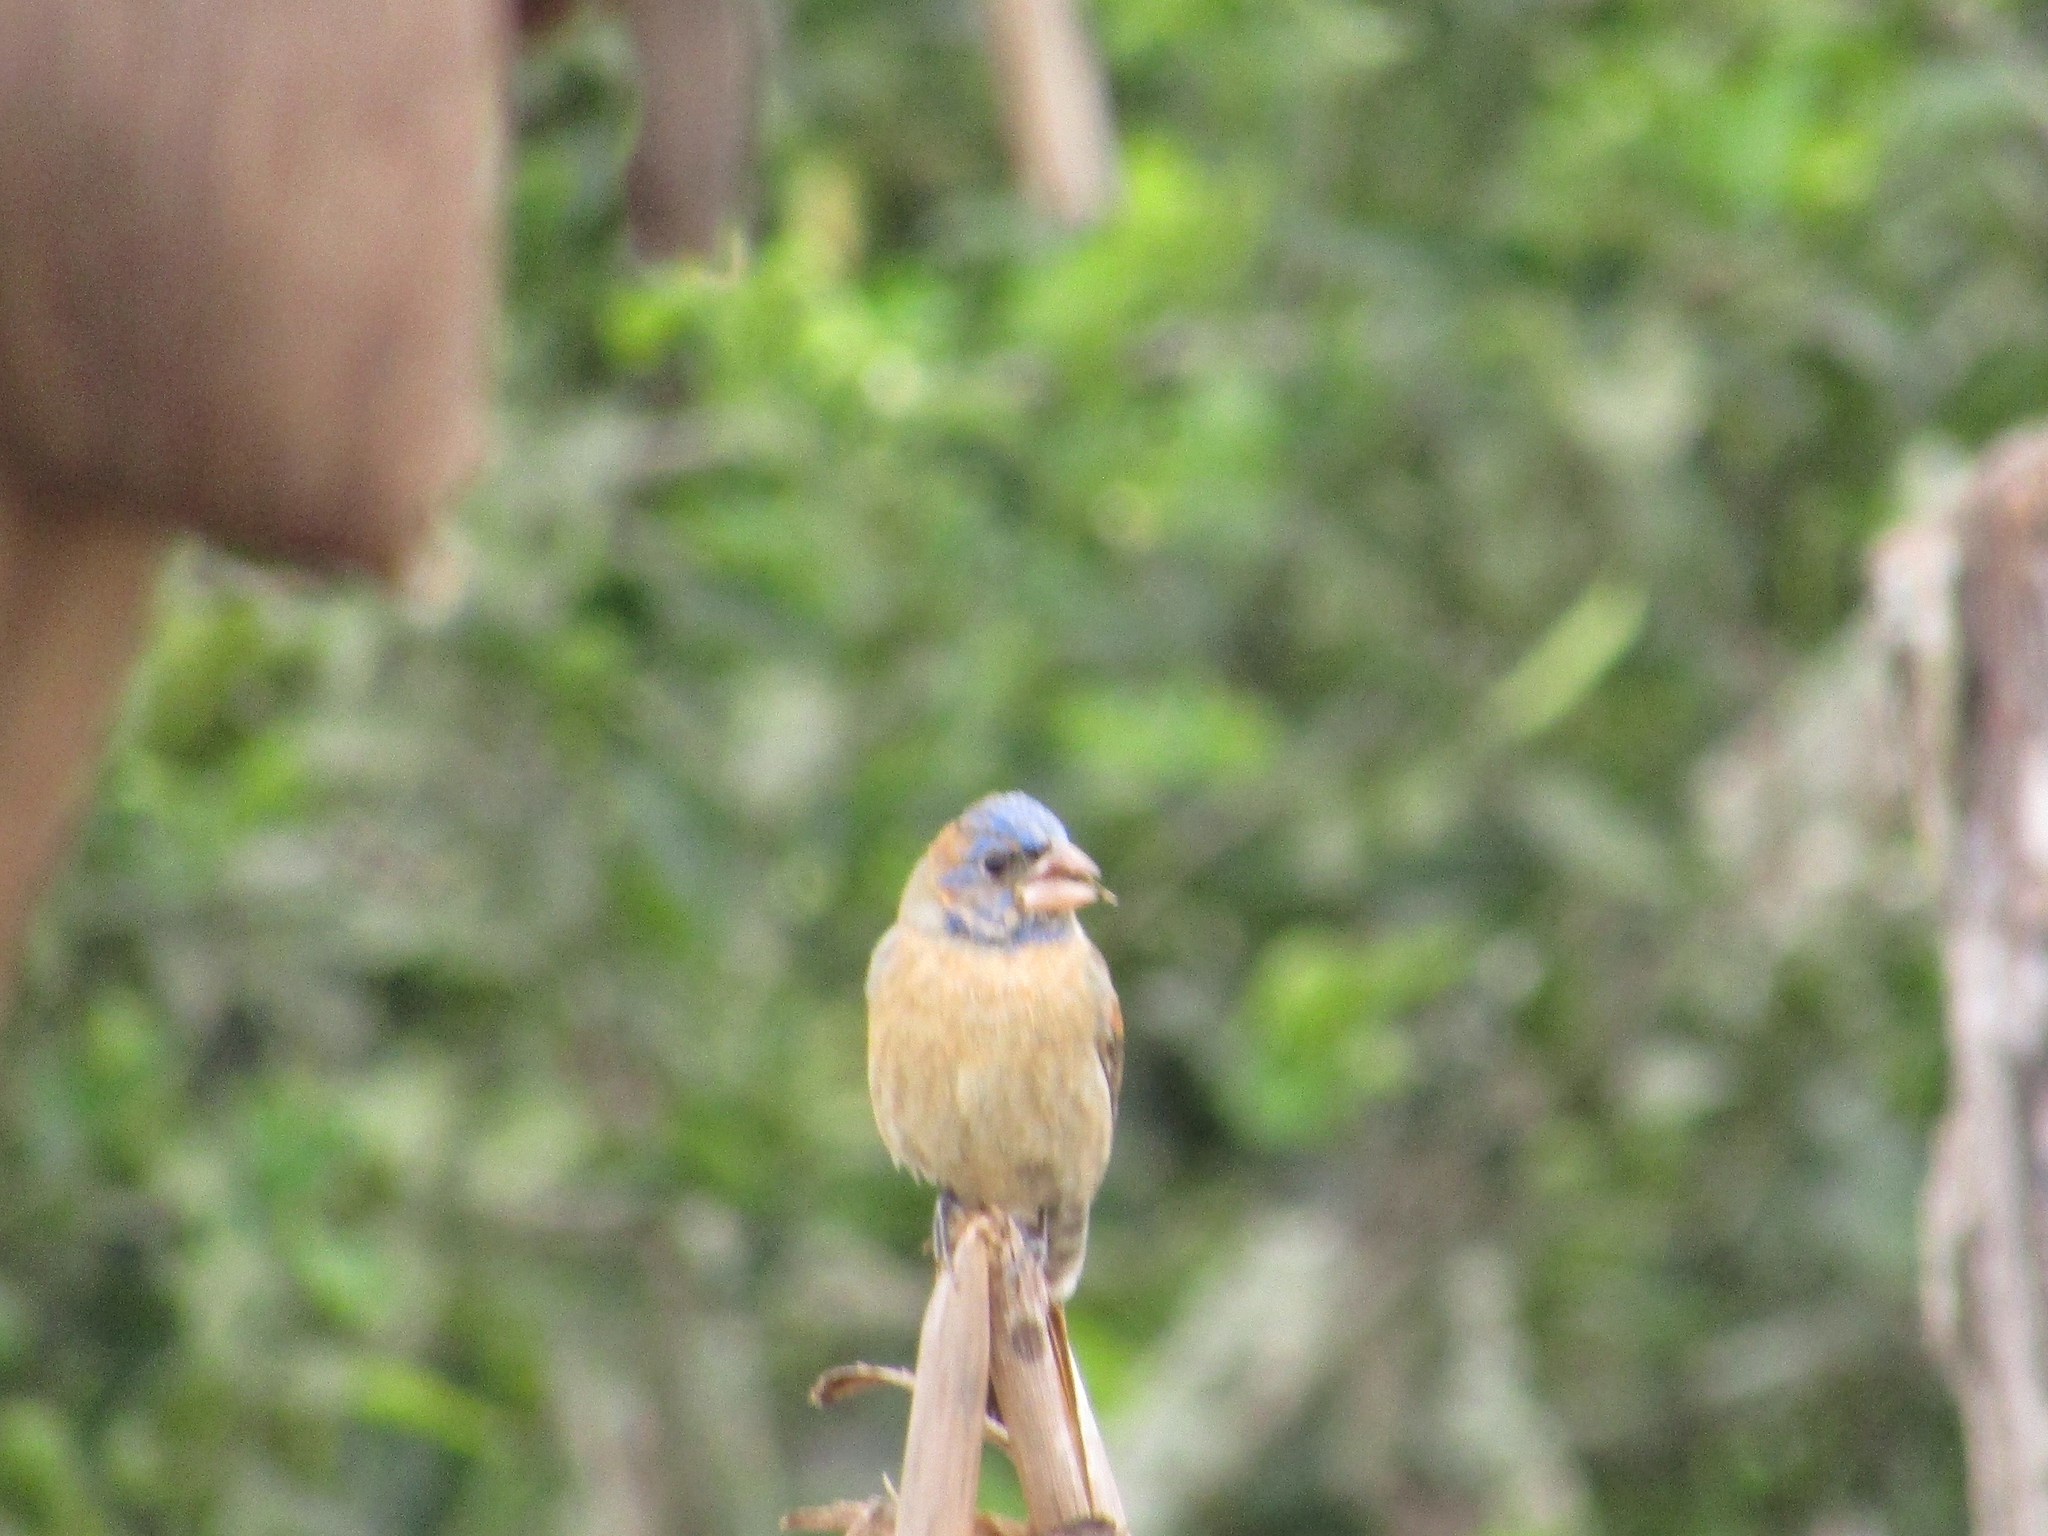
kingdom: Animalia
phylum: Chordata
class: Aves
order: Passeriformes
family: Cardinalidae
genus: Passerina
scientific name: Passerina caerulea
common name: Blue grosbeak
